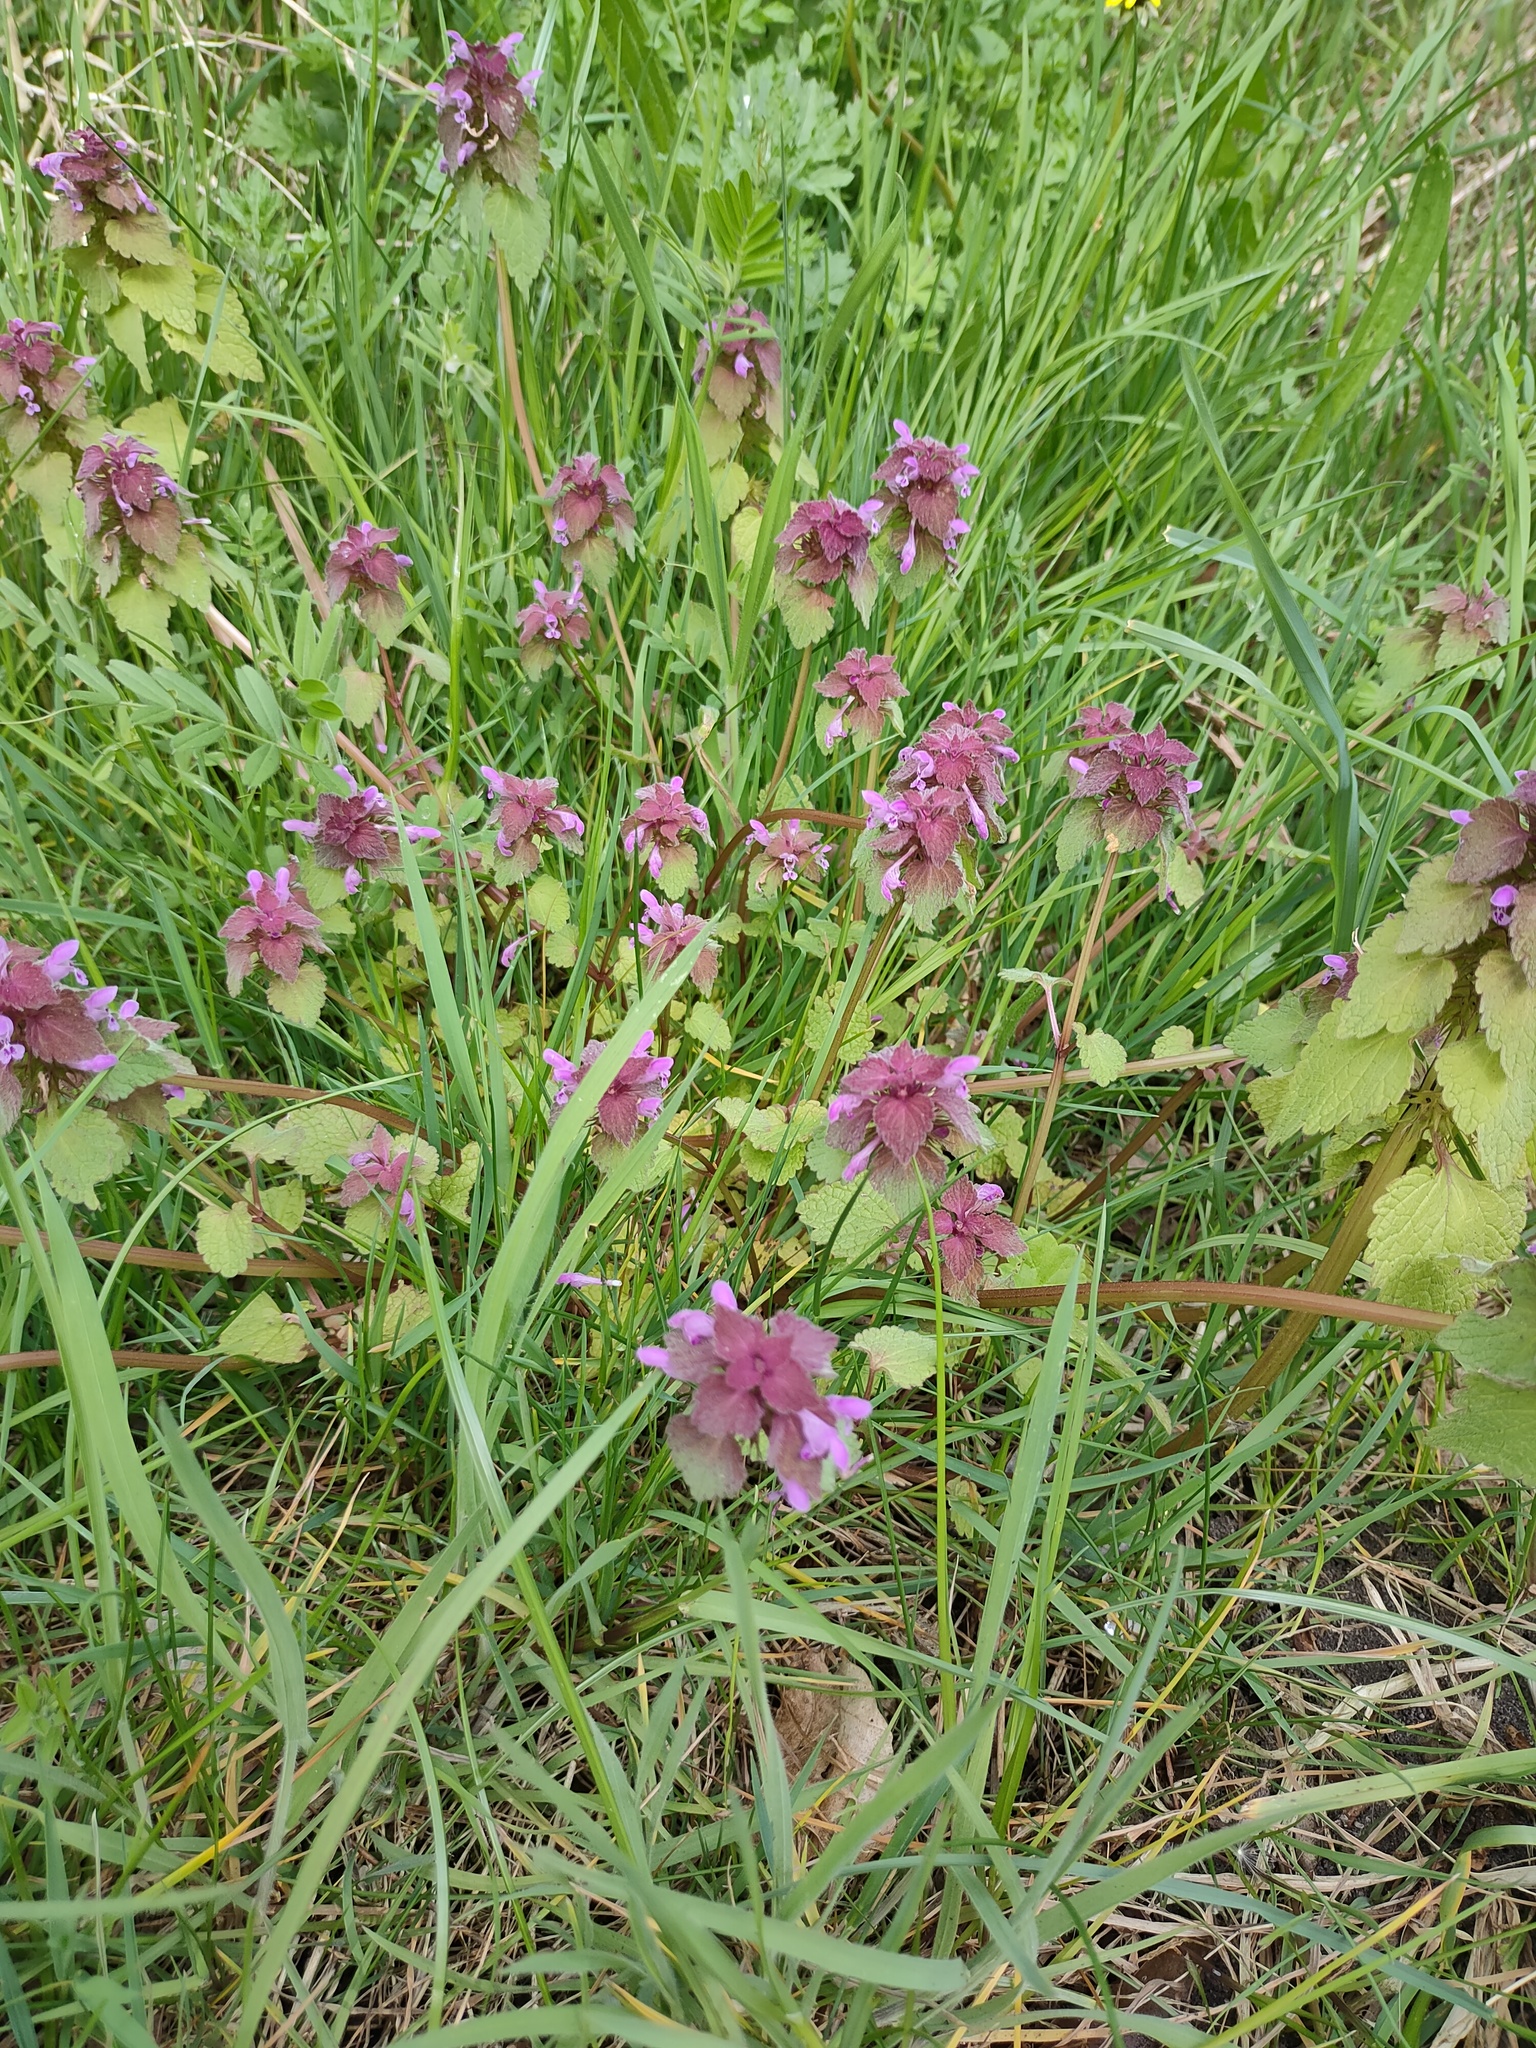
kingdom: Plantae
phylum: Tracheophyta
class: Magnoliopsida
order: Lamiales
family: Lamiaceae
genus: Lamium
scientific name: Lamium purpureum
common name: Red dead-nettle
